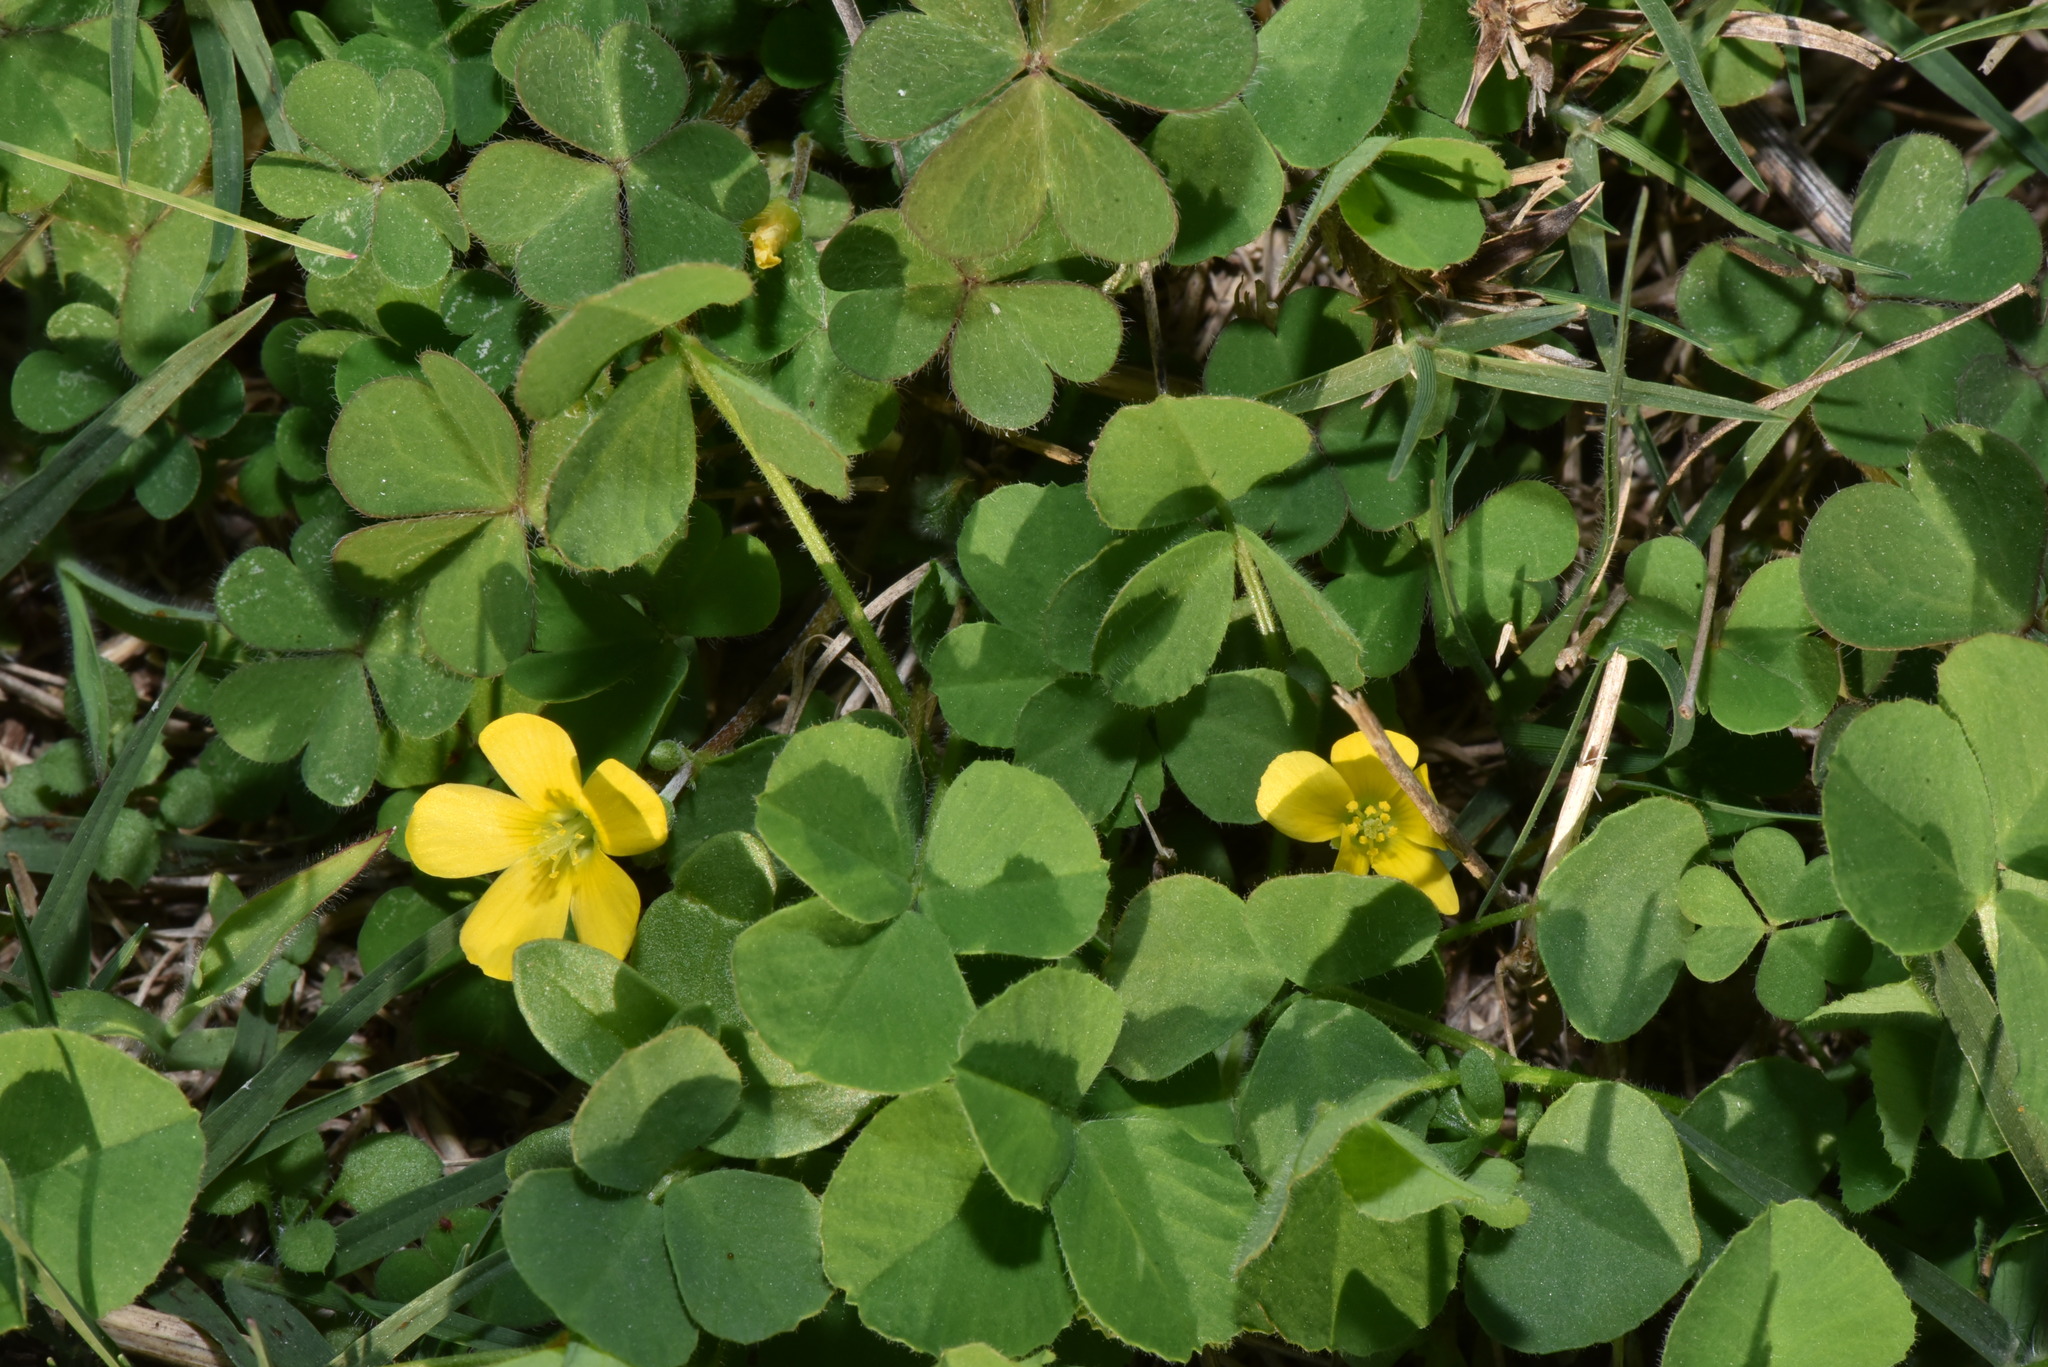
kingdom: Plantae
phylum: Tracheophyta
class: Magnoliopsida
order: Oxalidales
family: Oxalidaceae
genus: Oxalis
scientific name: Oxalis corniculata
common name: Procumbent yellow-sorrel
